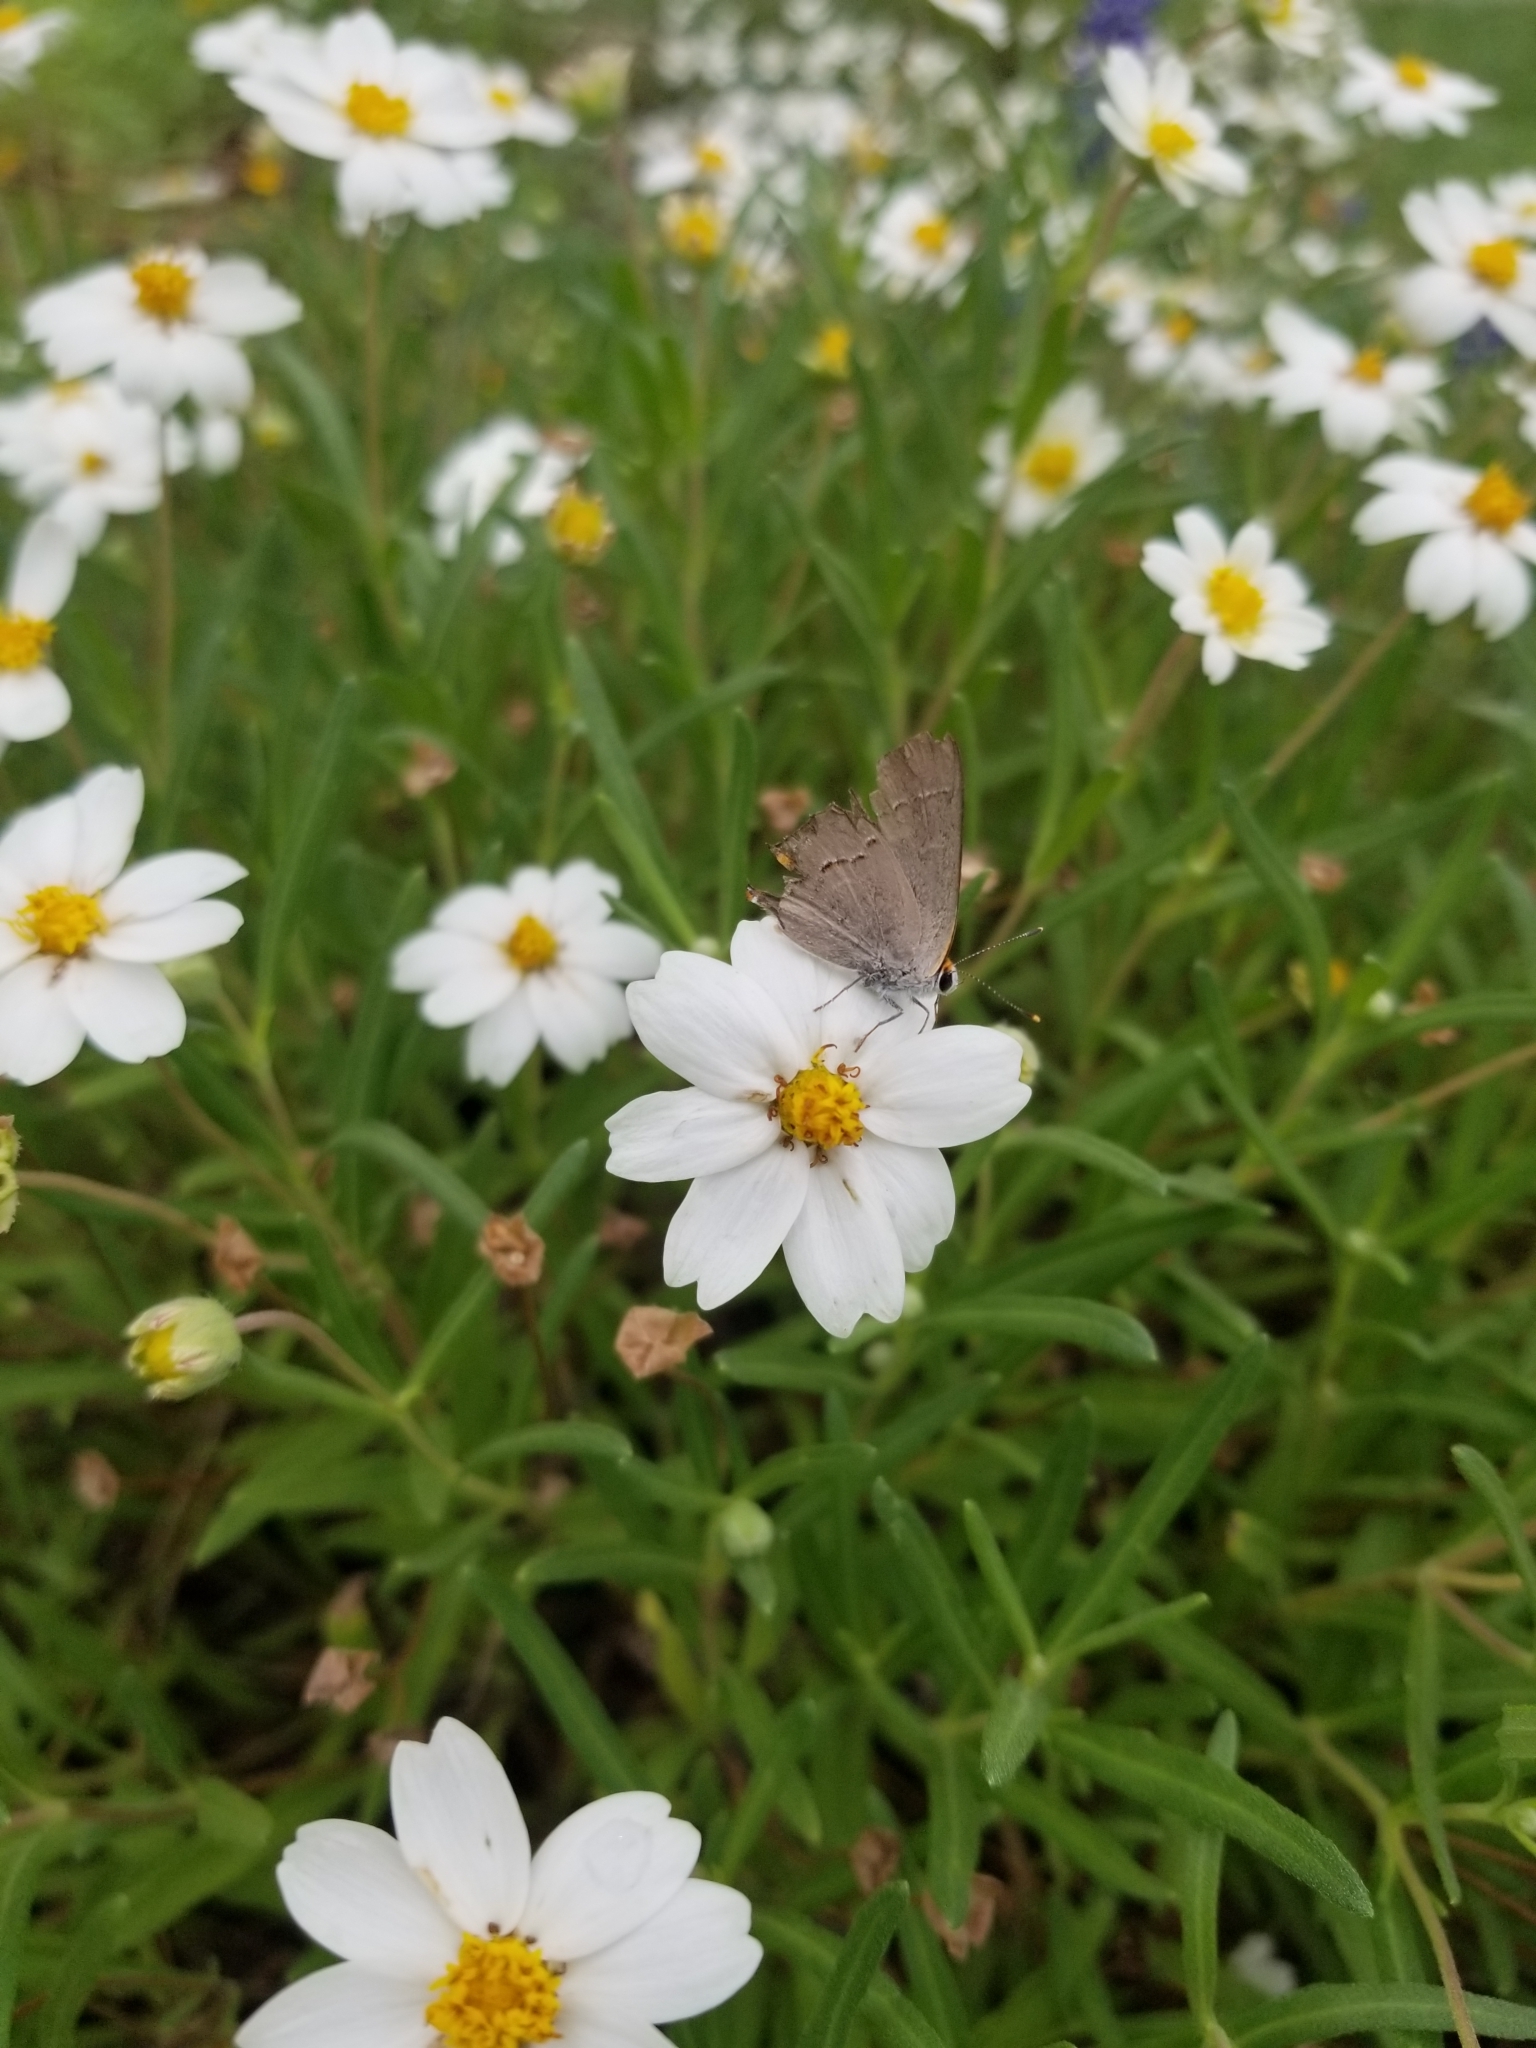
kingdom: Animalia
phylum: Arthropoda
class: Insecta
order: Lepidoptera
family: Lycaenidae
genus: Strymon
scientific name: Strymon melinus
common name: Gray hairstreak
